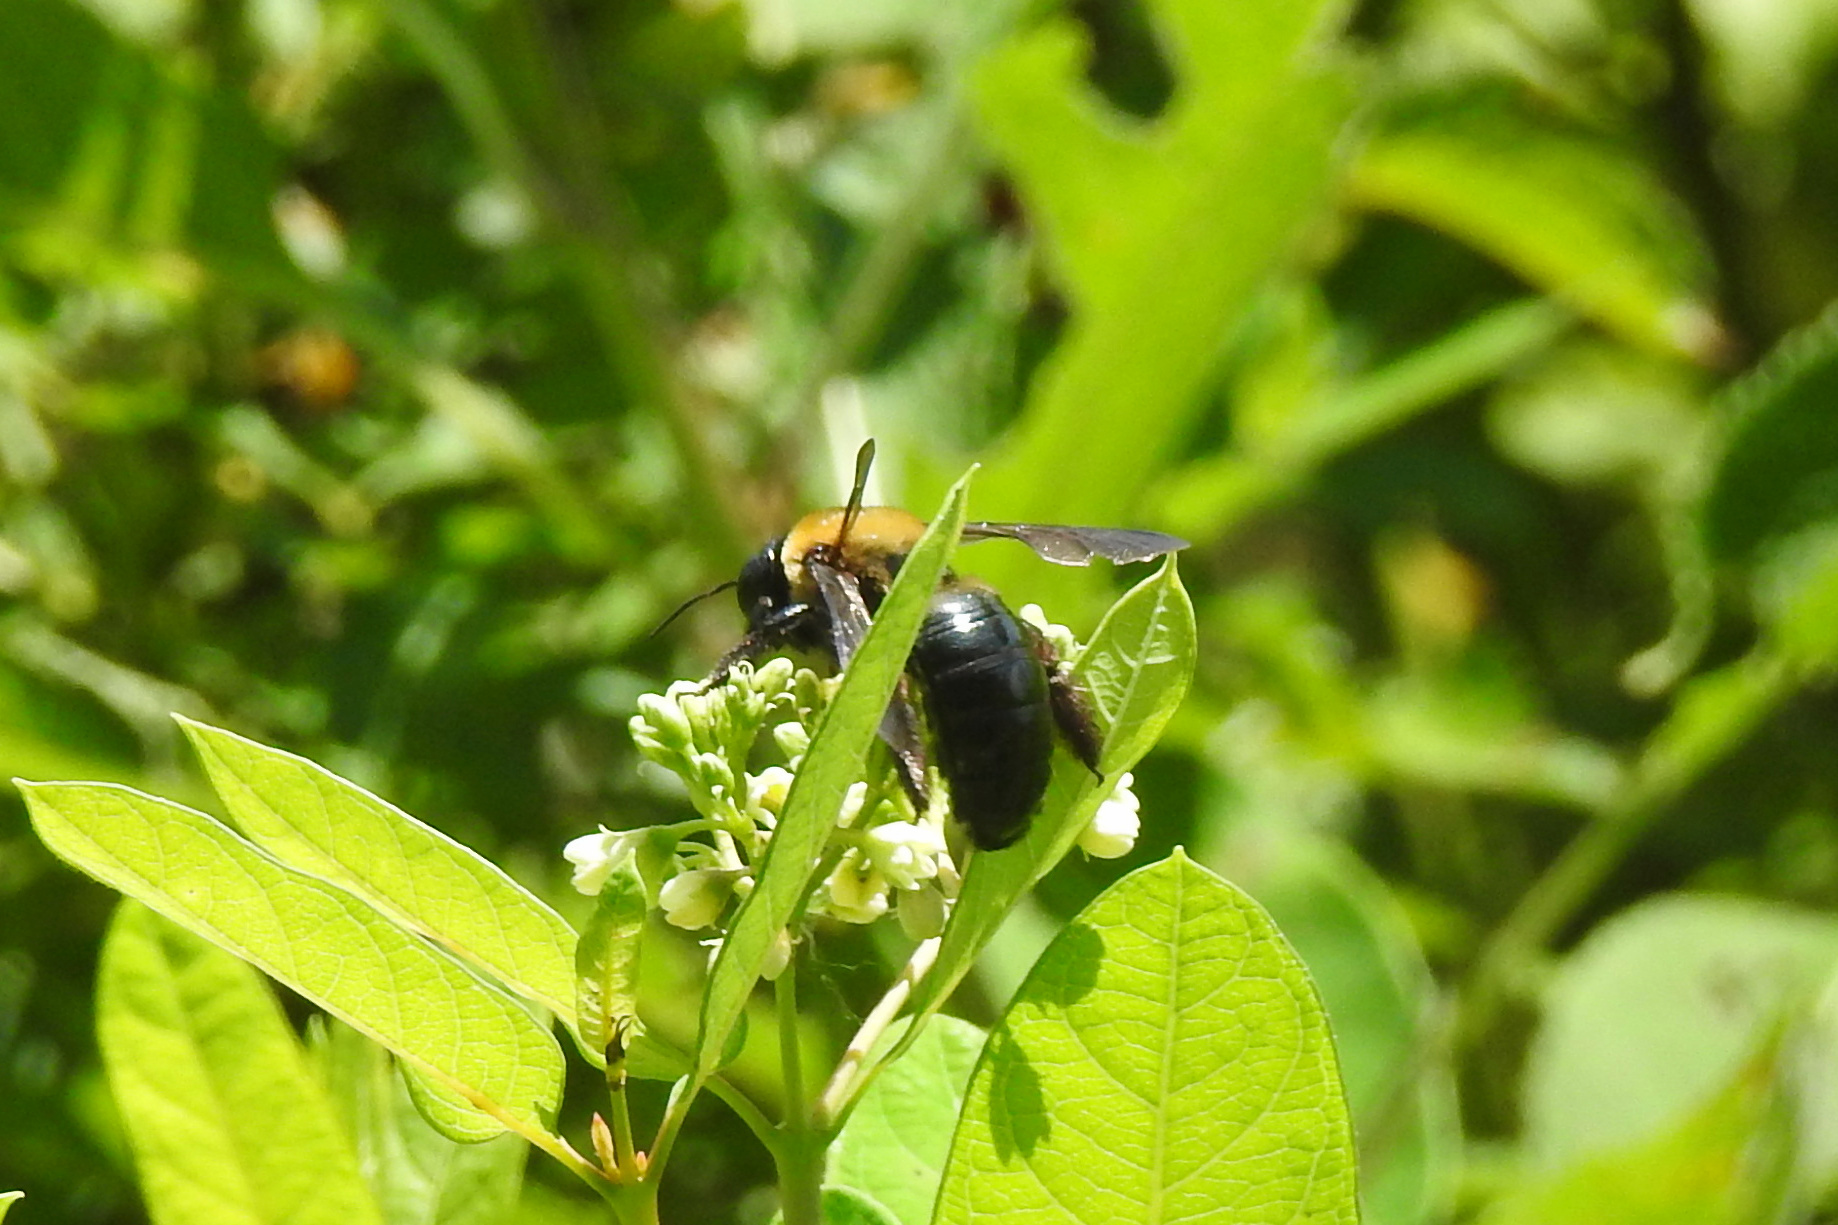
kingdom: Animalia
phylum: Arthropoda
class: Insecta
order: Hymenoptera
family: Apidae
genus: Xylocopa
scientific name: Xylocopa virginica
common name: Carpenter bee
